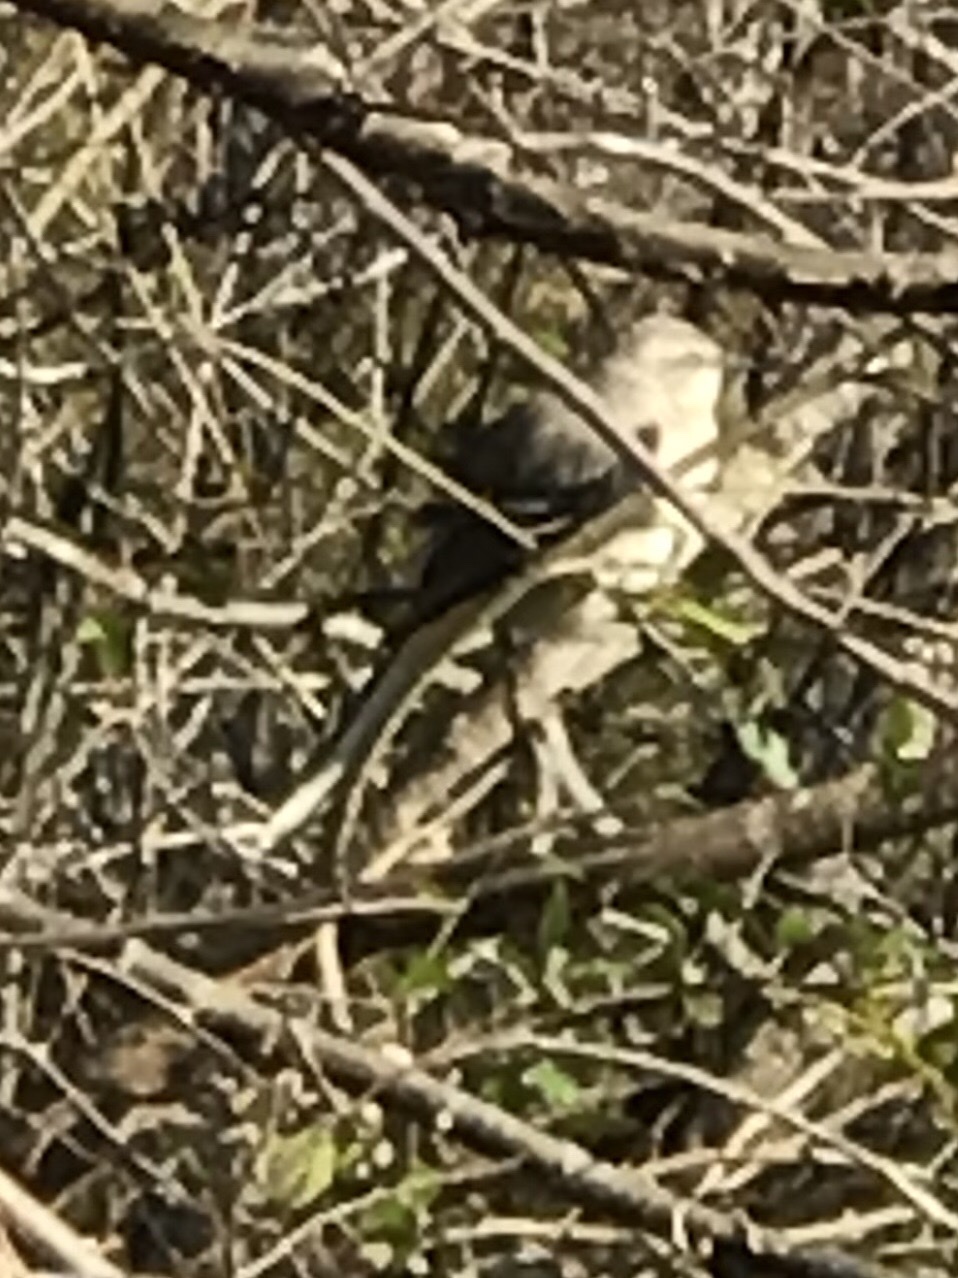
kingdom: Animalia
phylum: Chordata
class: Aves
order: Passeriformes
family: Mimidae
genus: Mimus
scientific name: Mimus polyglottos
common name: Northern mockingbird
